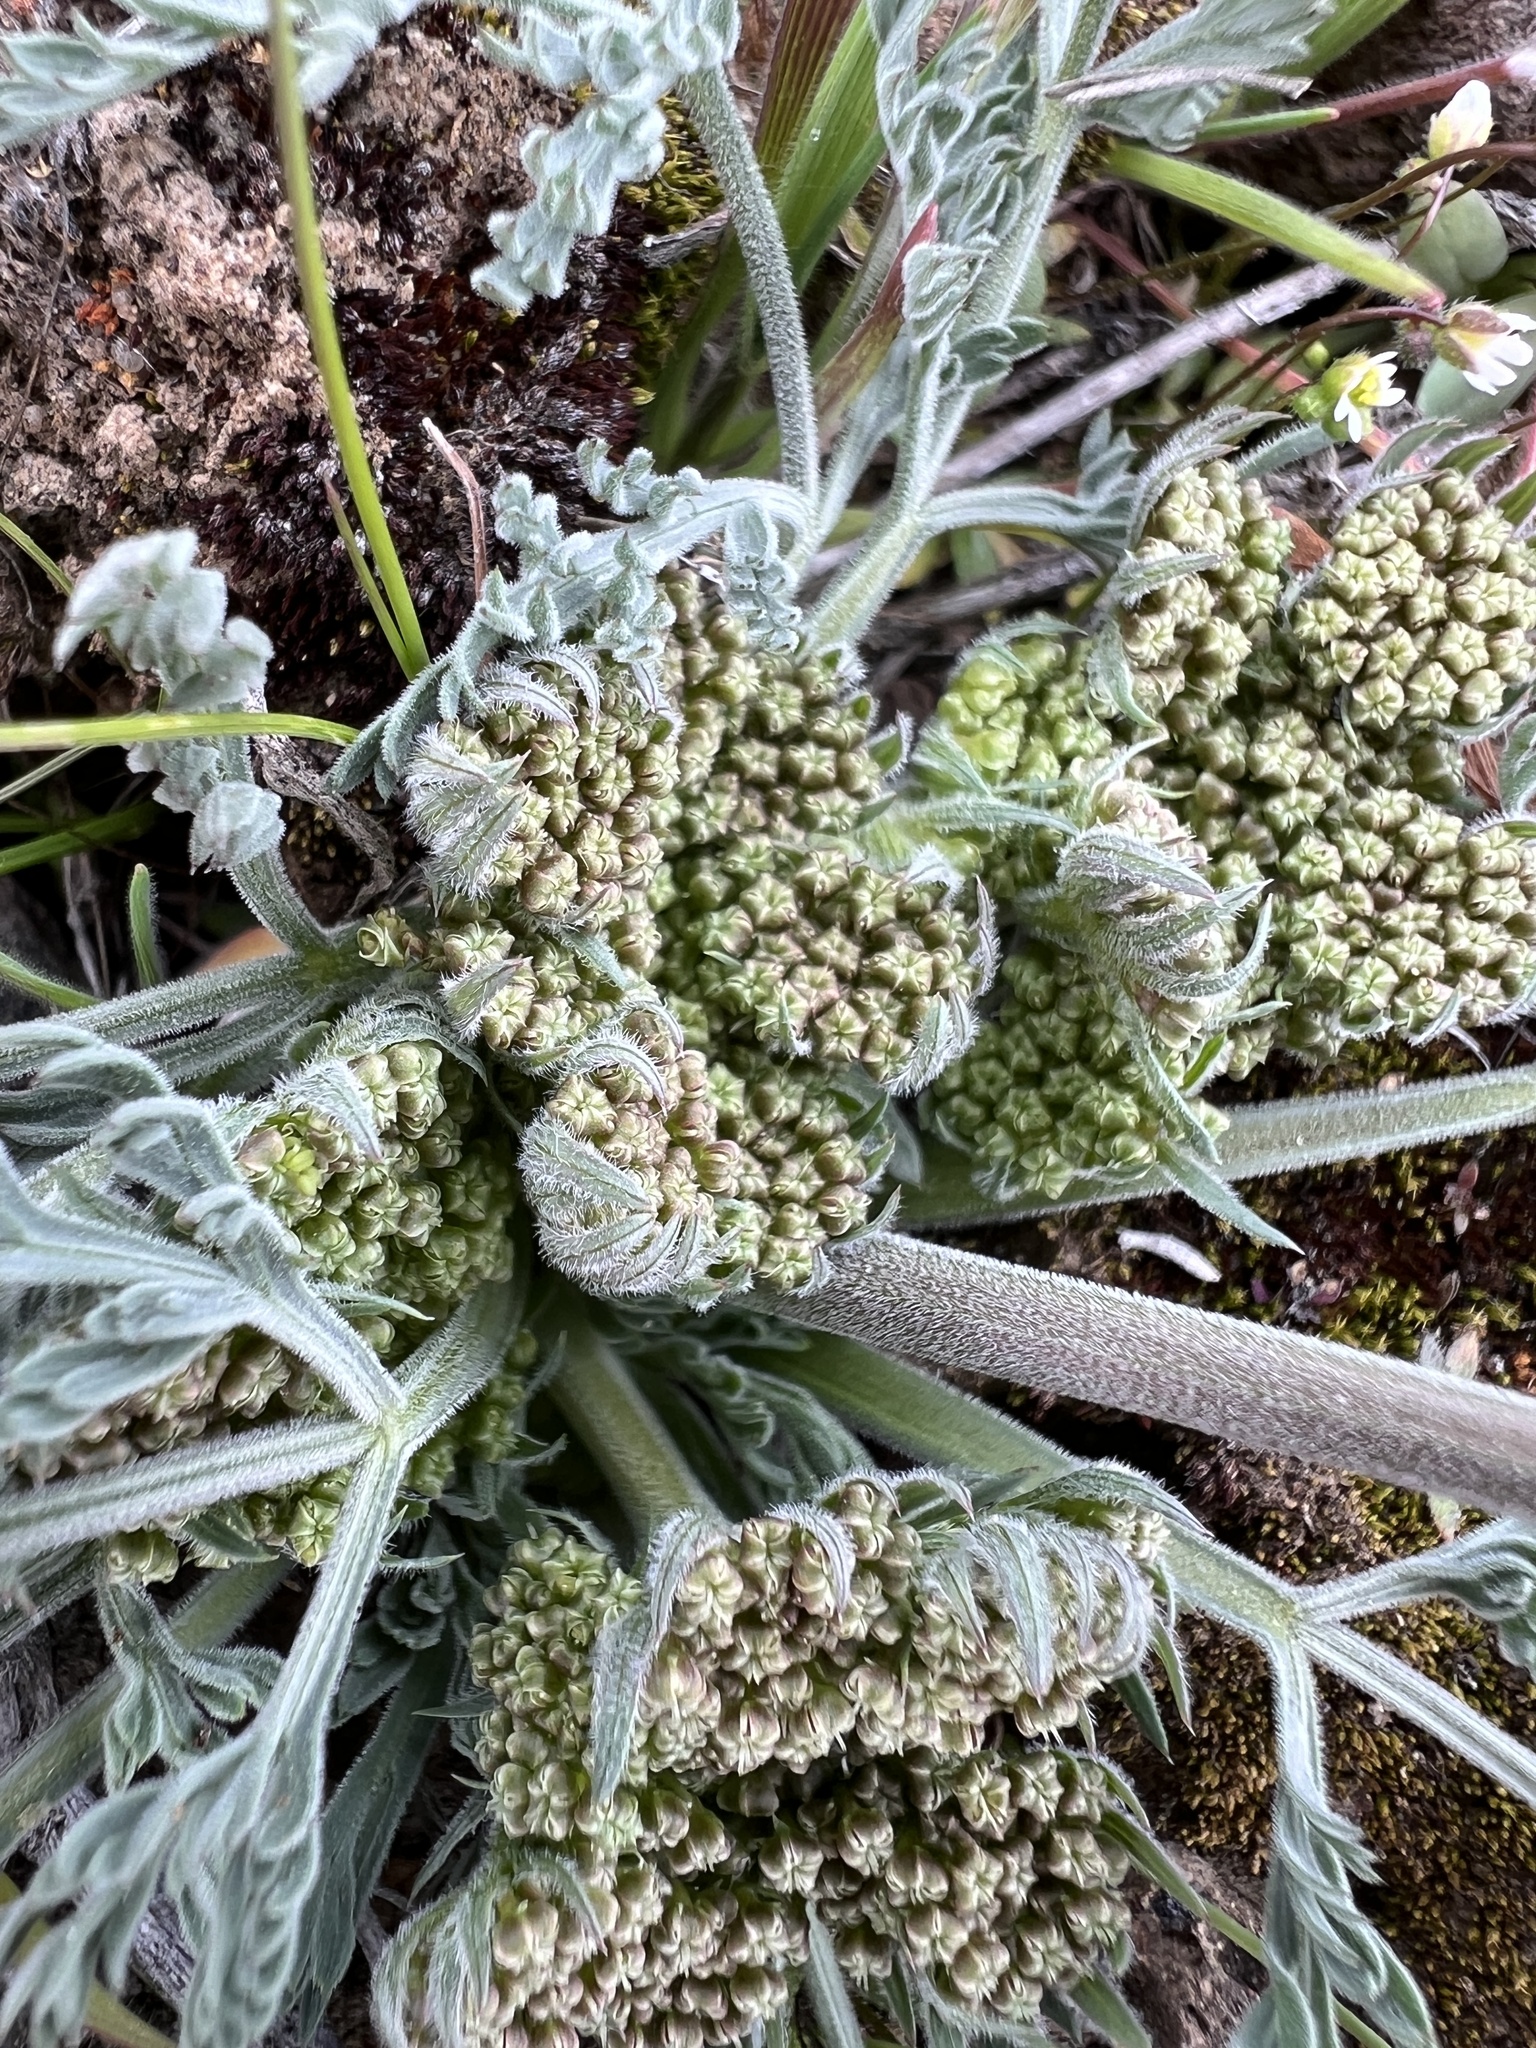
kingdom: Plantae
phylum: Tracheophyta
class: Magnoliopsida
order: Apiales
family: Apiaceae
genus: Lomatium
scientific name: Lomatium macrocarpum
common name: Big-seed biscuitroot
